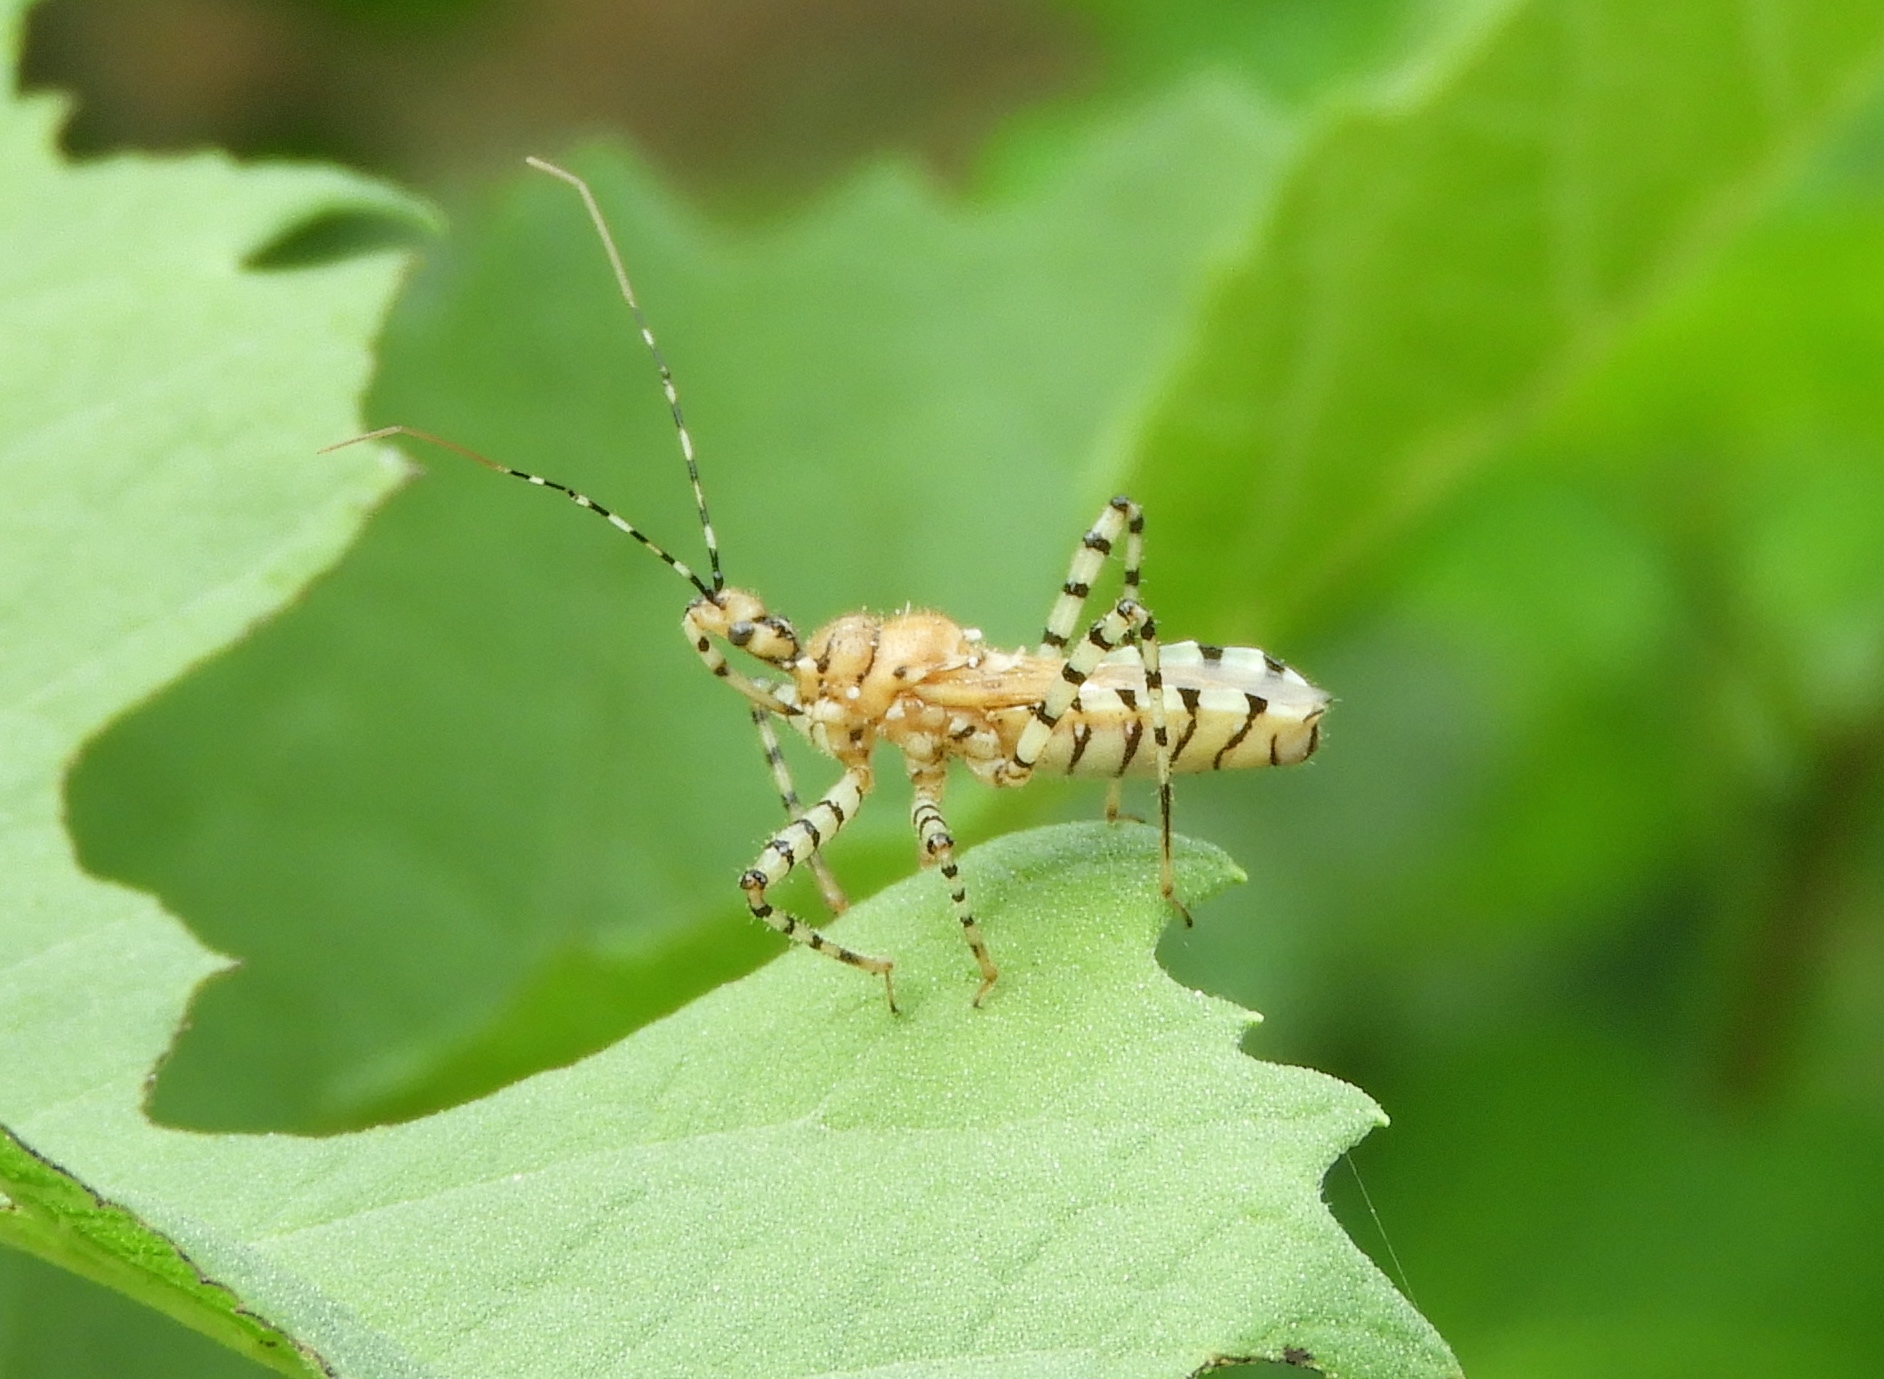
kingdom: Animalia
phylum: Arthropoda
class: Insecta
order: Hemiptera
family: Reduviidae
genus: Pselliopus
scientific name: Pselliopus
